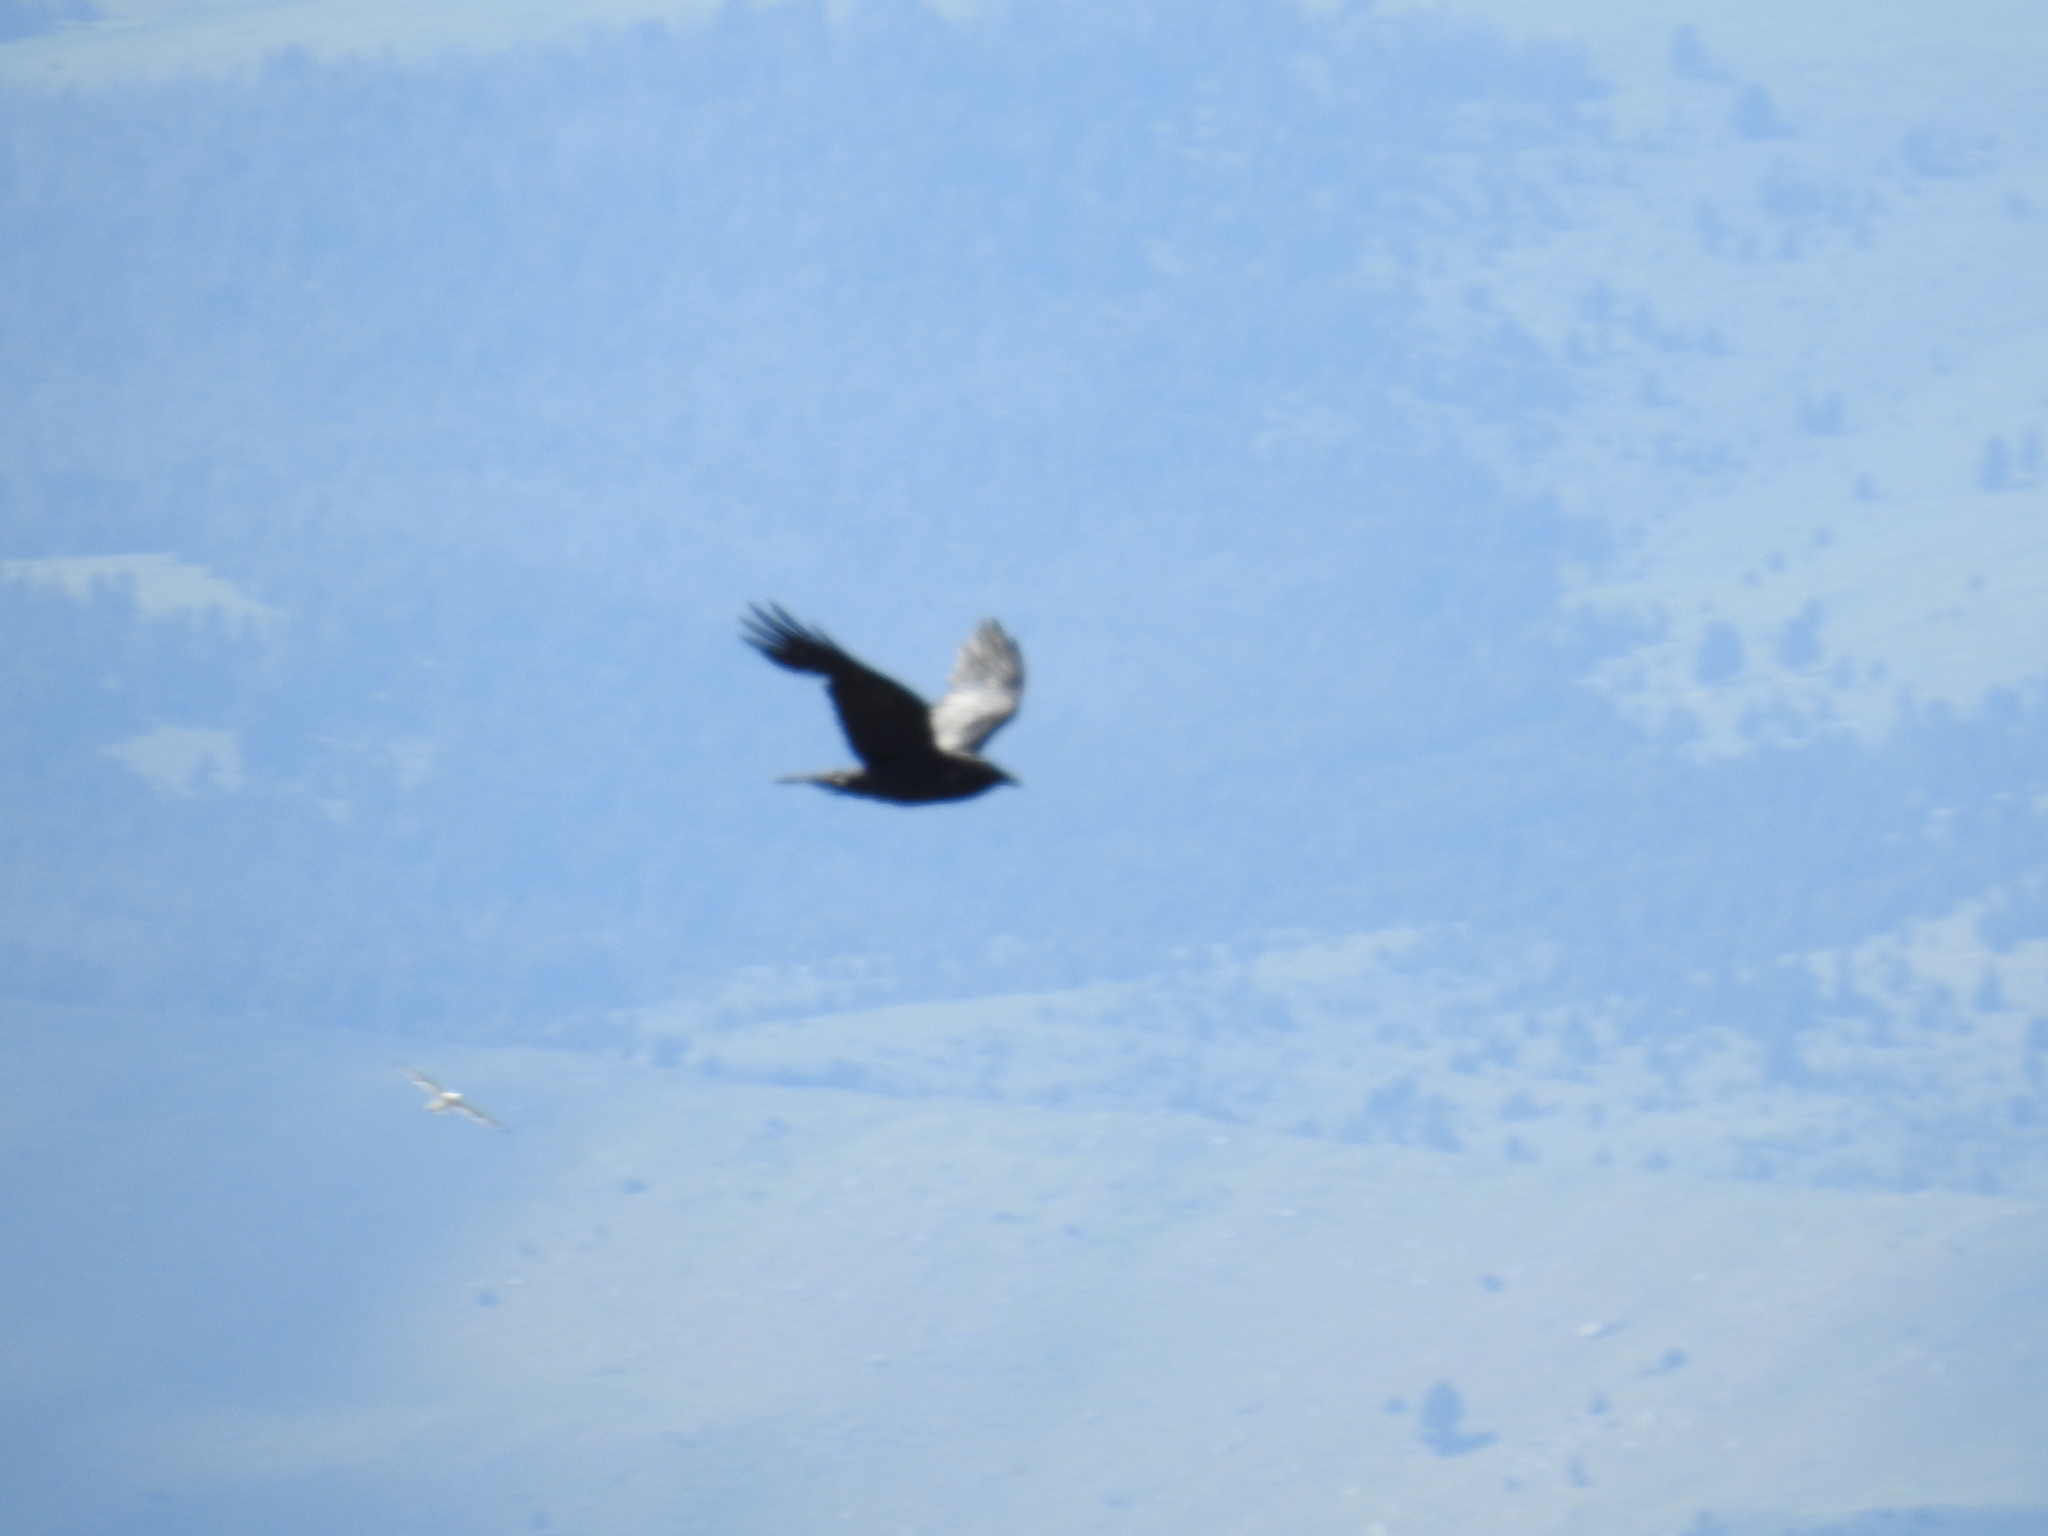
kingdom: Animalia
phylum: Chordata
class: Aves
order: Passeriformes
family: Corvidae
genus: Corvus
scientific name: Corvus corax
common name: Common raven
